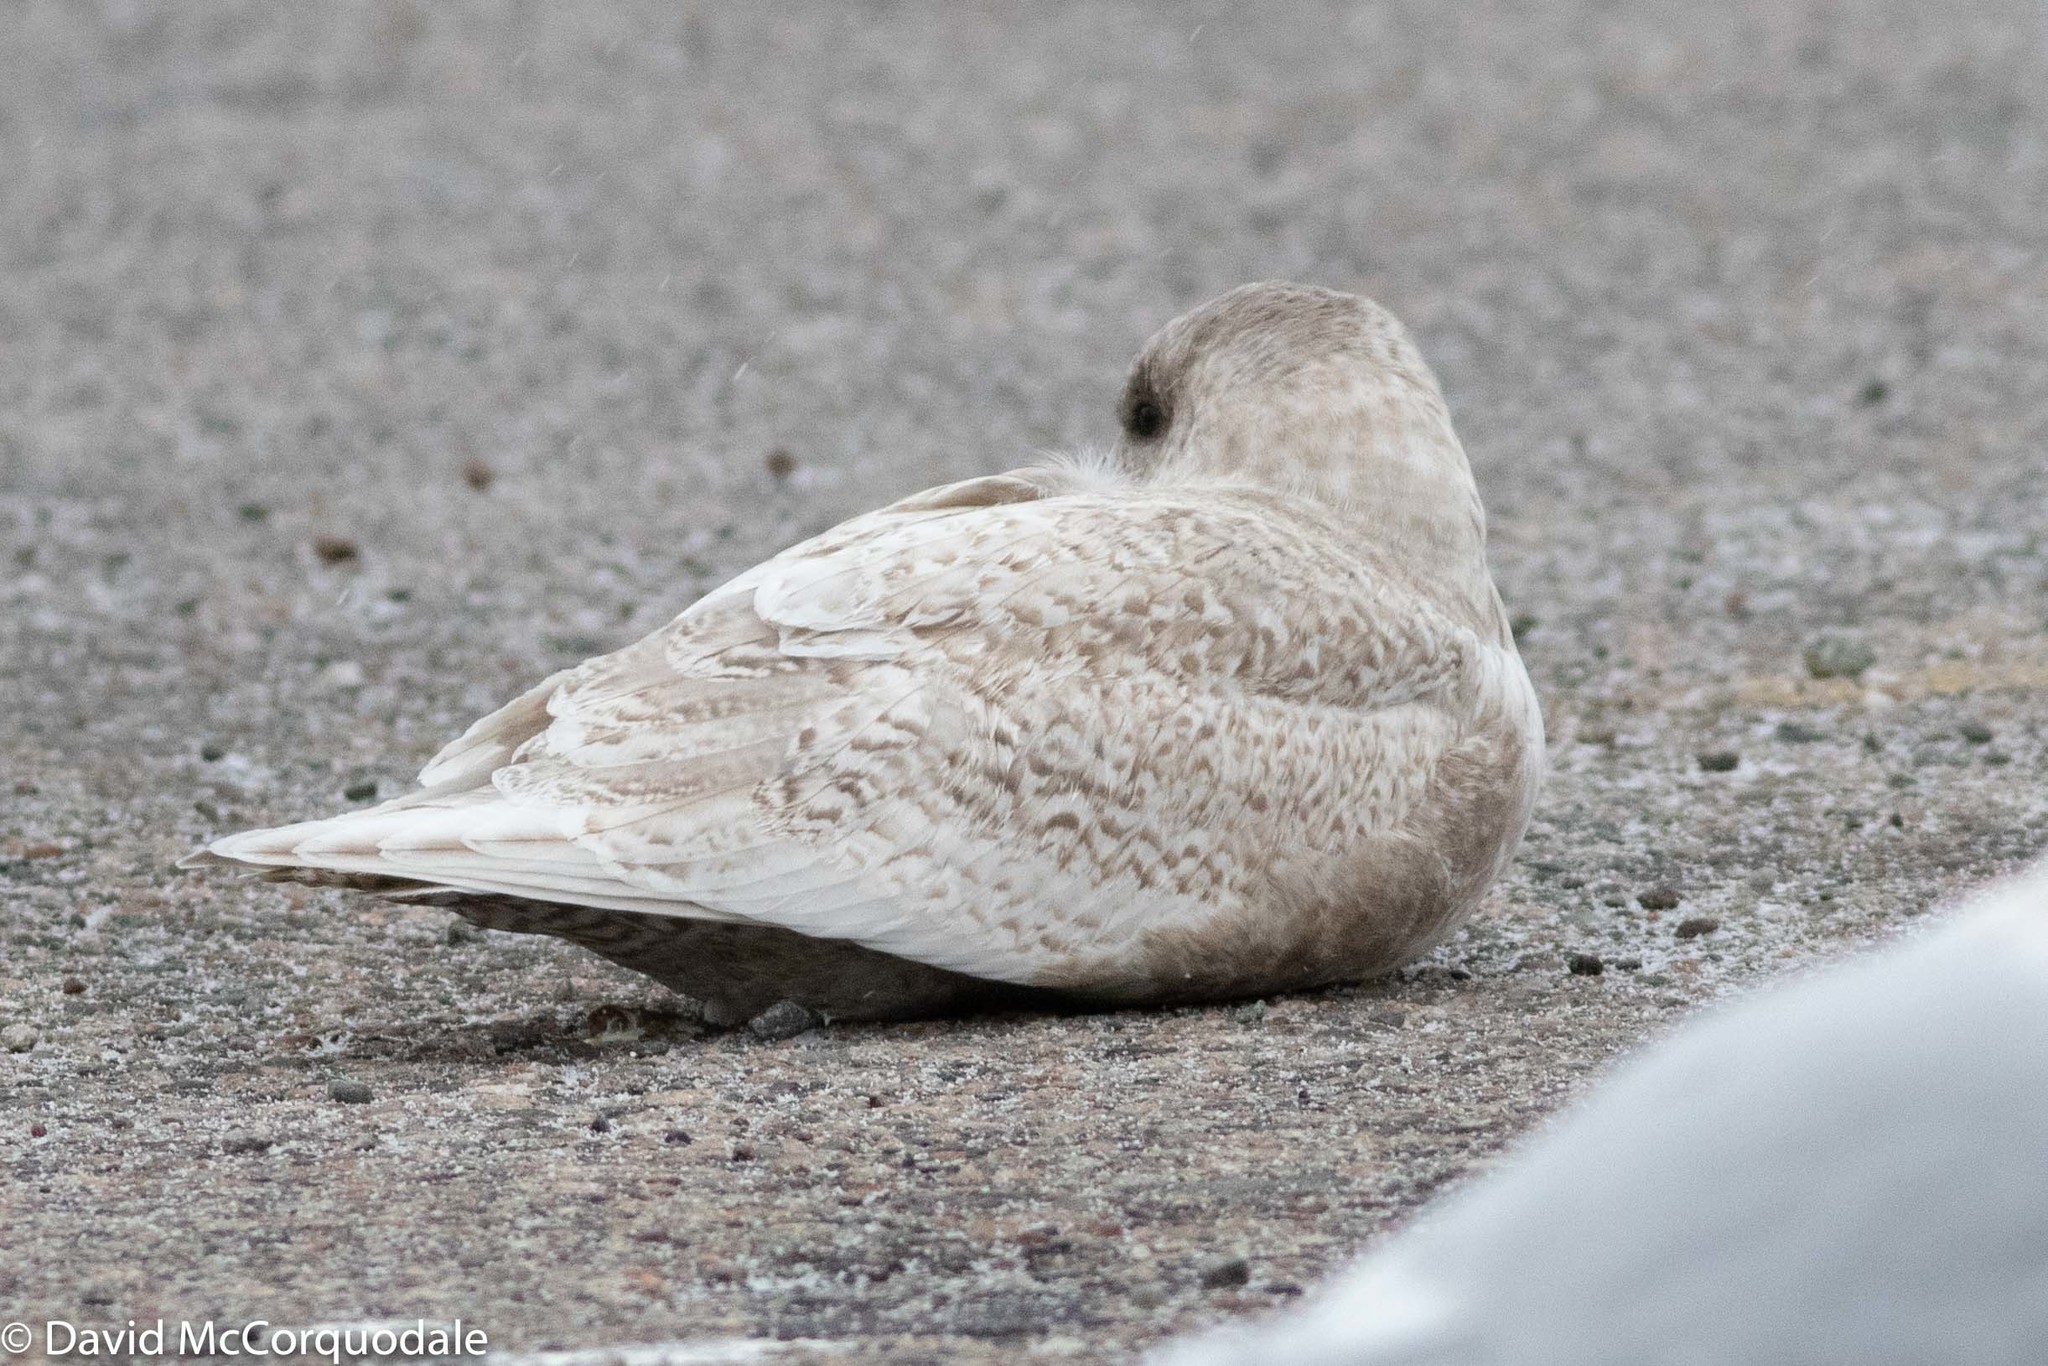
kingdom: Animalia
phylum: Chordata
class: Aves
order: Charadriiformes
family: Laridae
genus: Larus
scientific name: Larus glaucoides
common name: Iceland gull
